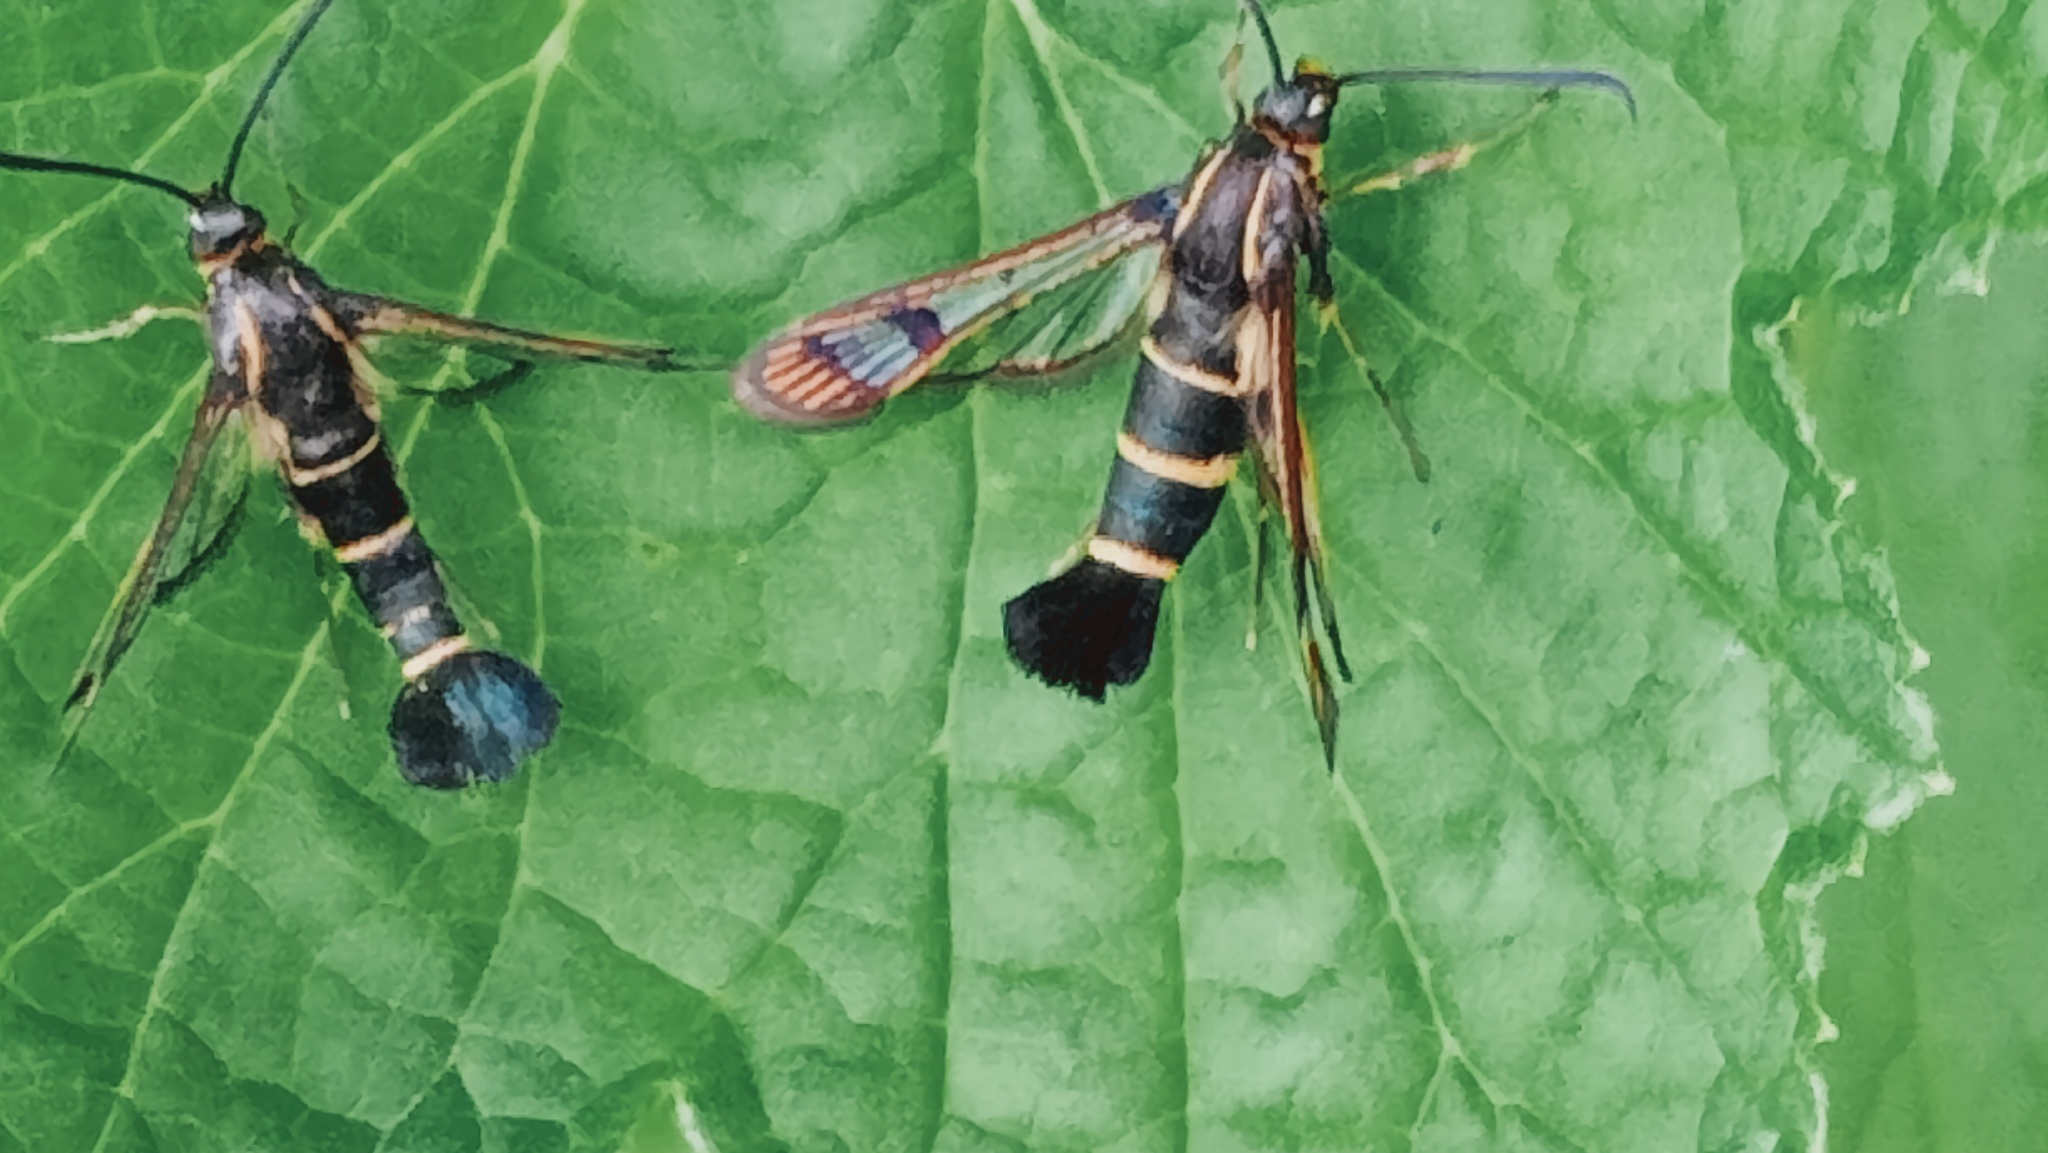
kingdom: Animalia
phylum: Arthropoda
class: Insecta
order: Lepidoptera
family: Sesiidae
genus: Synanthedon
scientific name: Synanthedon tipuliformis
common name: Currant clearwing
